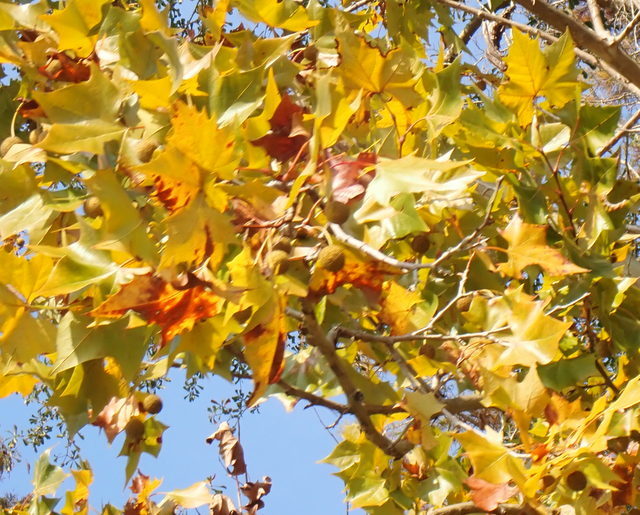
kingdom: Plantae
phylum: Tracheophyta
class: Magnoliopsida
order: Proteales
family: Platanaceae
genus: Platanus
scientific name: Platanus occidentalis
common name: American sycamore
